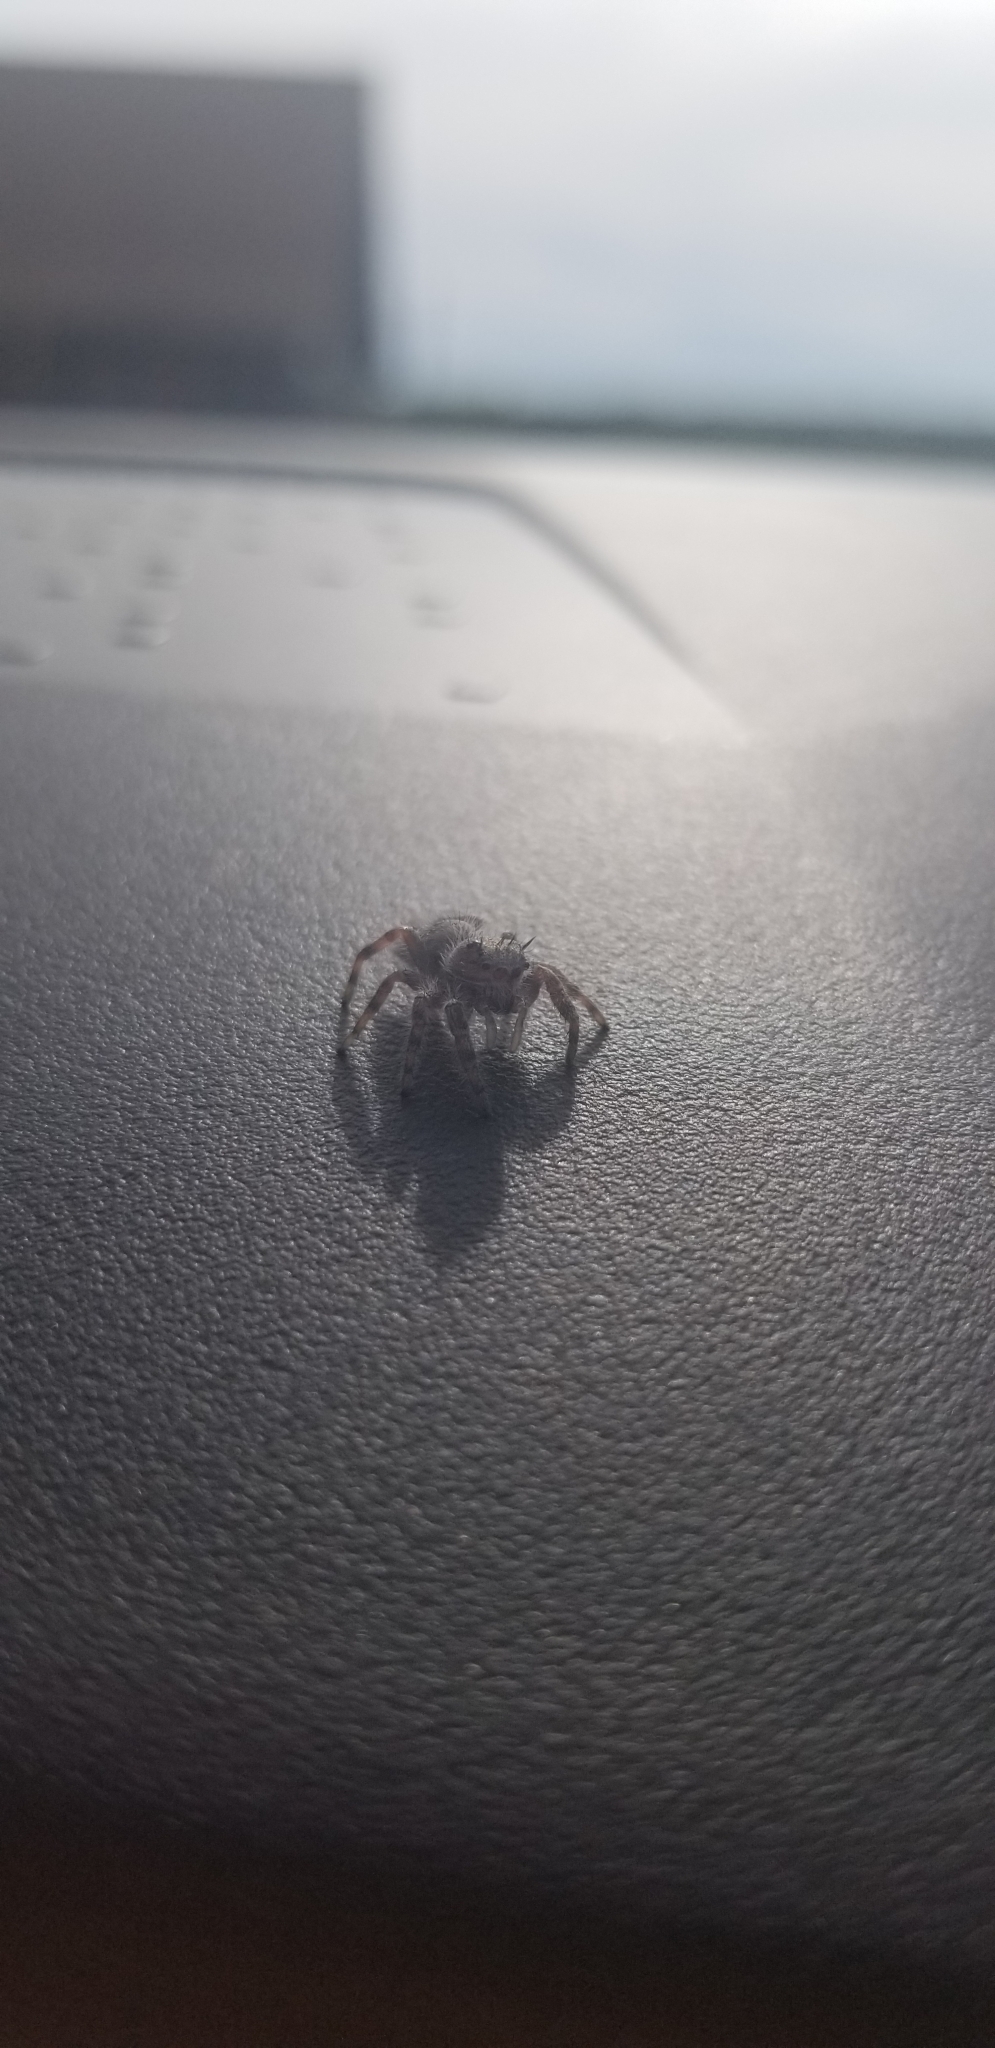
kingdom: Animalia
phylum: Arthropoda
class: Arachnida
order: Araneae
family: Salticidae
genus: Phidippus
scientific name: Phidippus putnami
